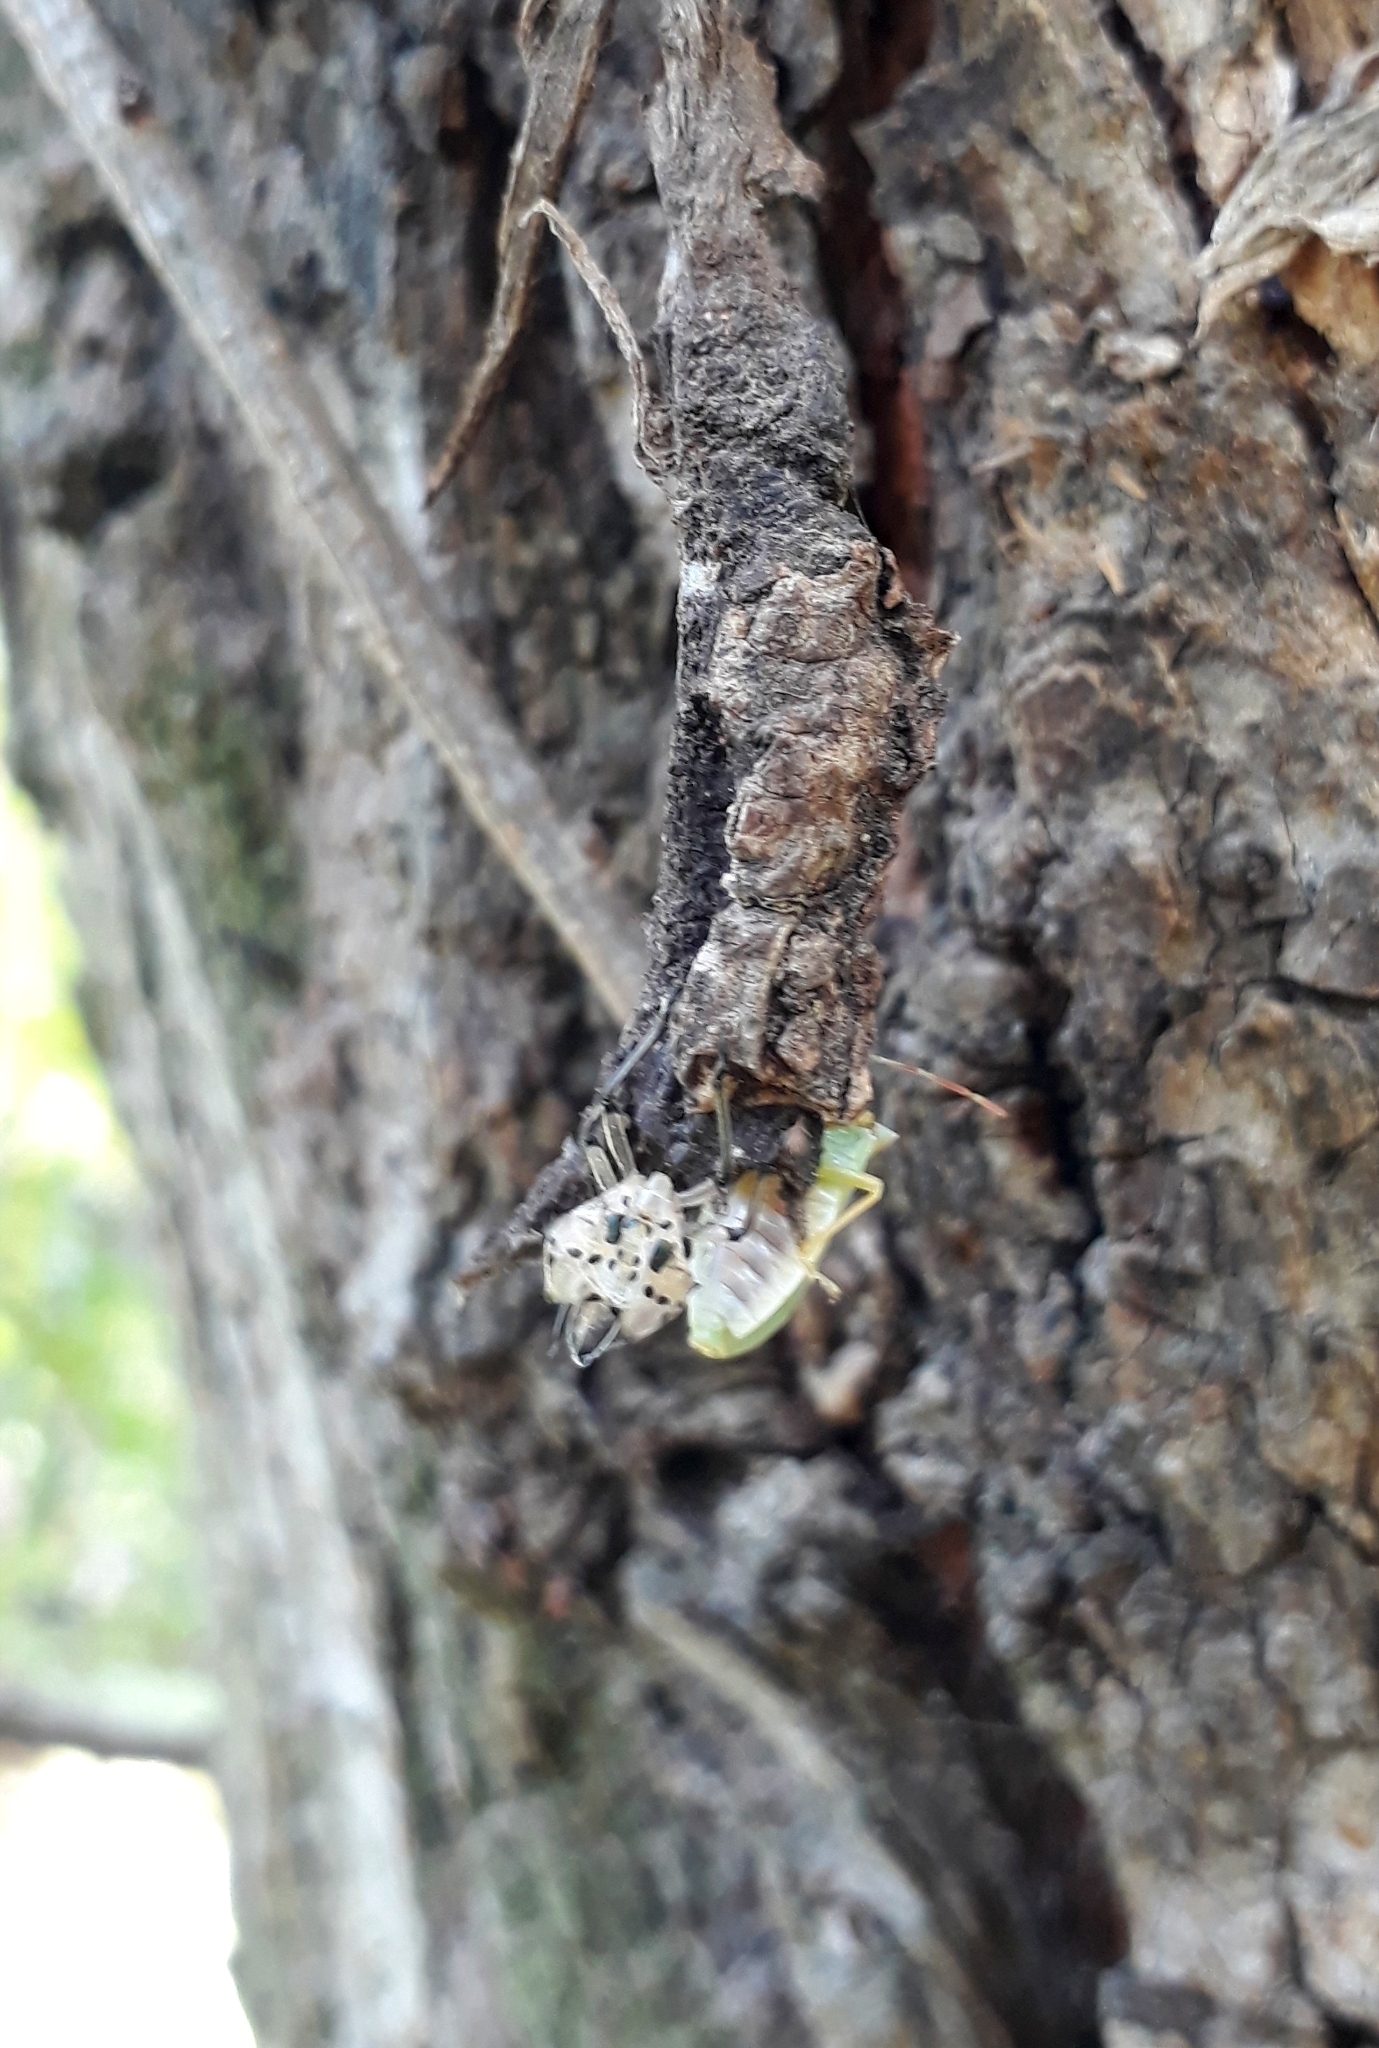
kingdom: Animalia
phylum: Arthropoda
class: Insecta
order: Hemiptera
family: Pentatomidae
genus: Brontocoris
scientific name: Brontocoris tabidus
